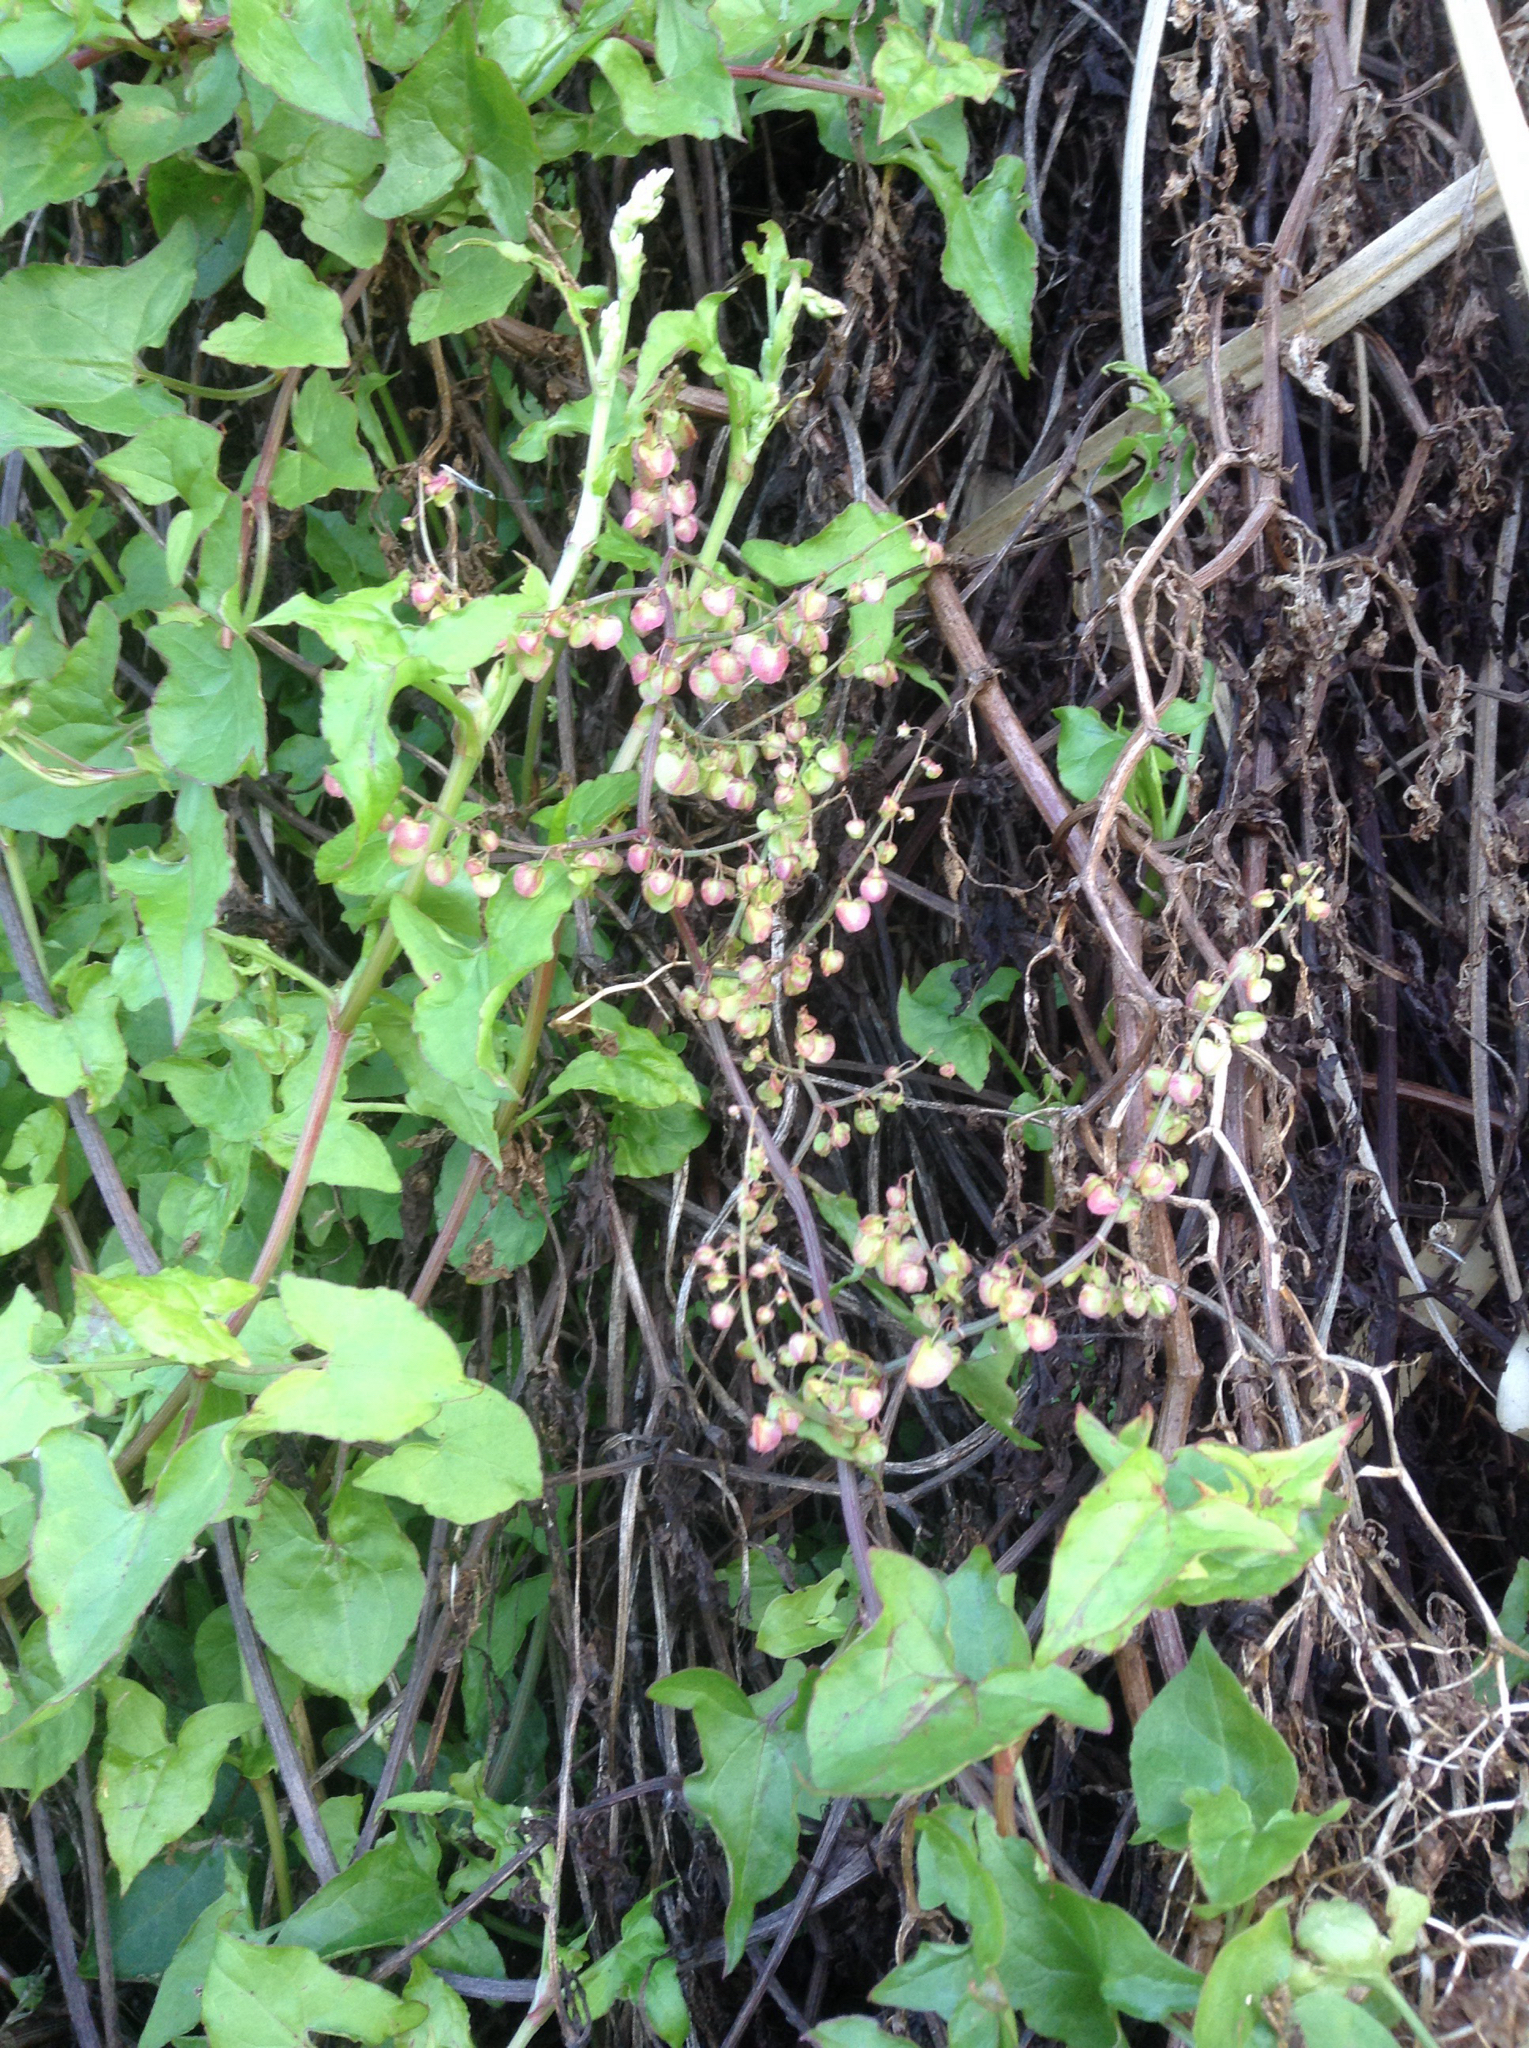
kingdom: Plantae
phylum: Tracheophyta
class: Magnoliopsida
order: Caryophyllales
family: Polygonaceae
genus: Rumex
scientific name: Rumex sagittatus
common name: Climbing dock
